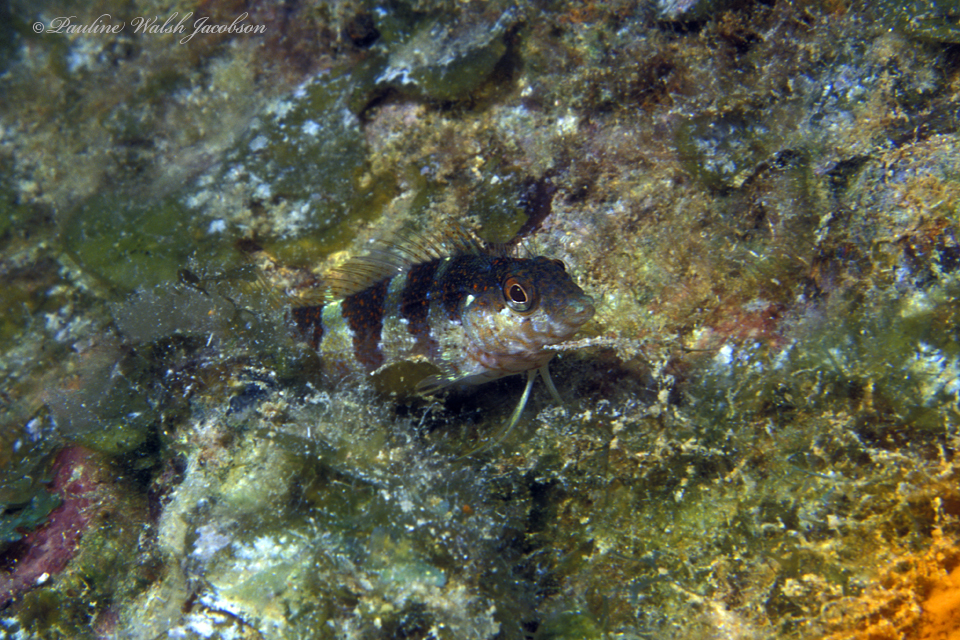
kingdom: Animalia
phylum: Chordata
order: Perciformes
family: Labrisomidae
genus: Malacoctenus
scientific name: Malacoctenus triangulatus
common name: Saddled blenny
